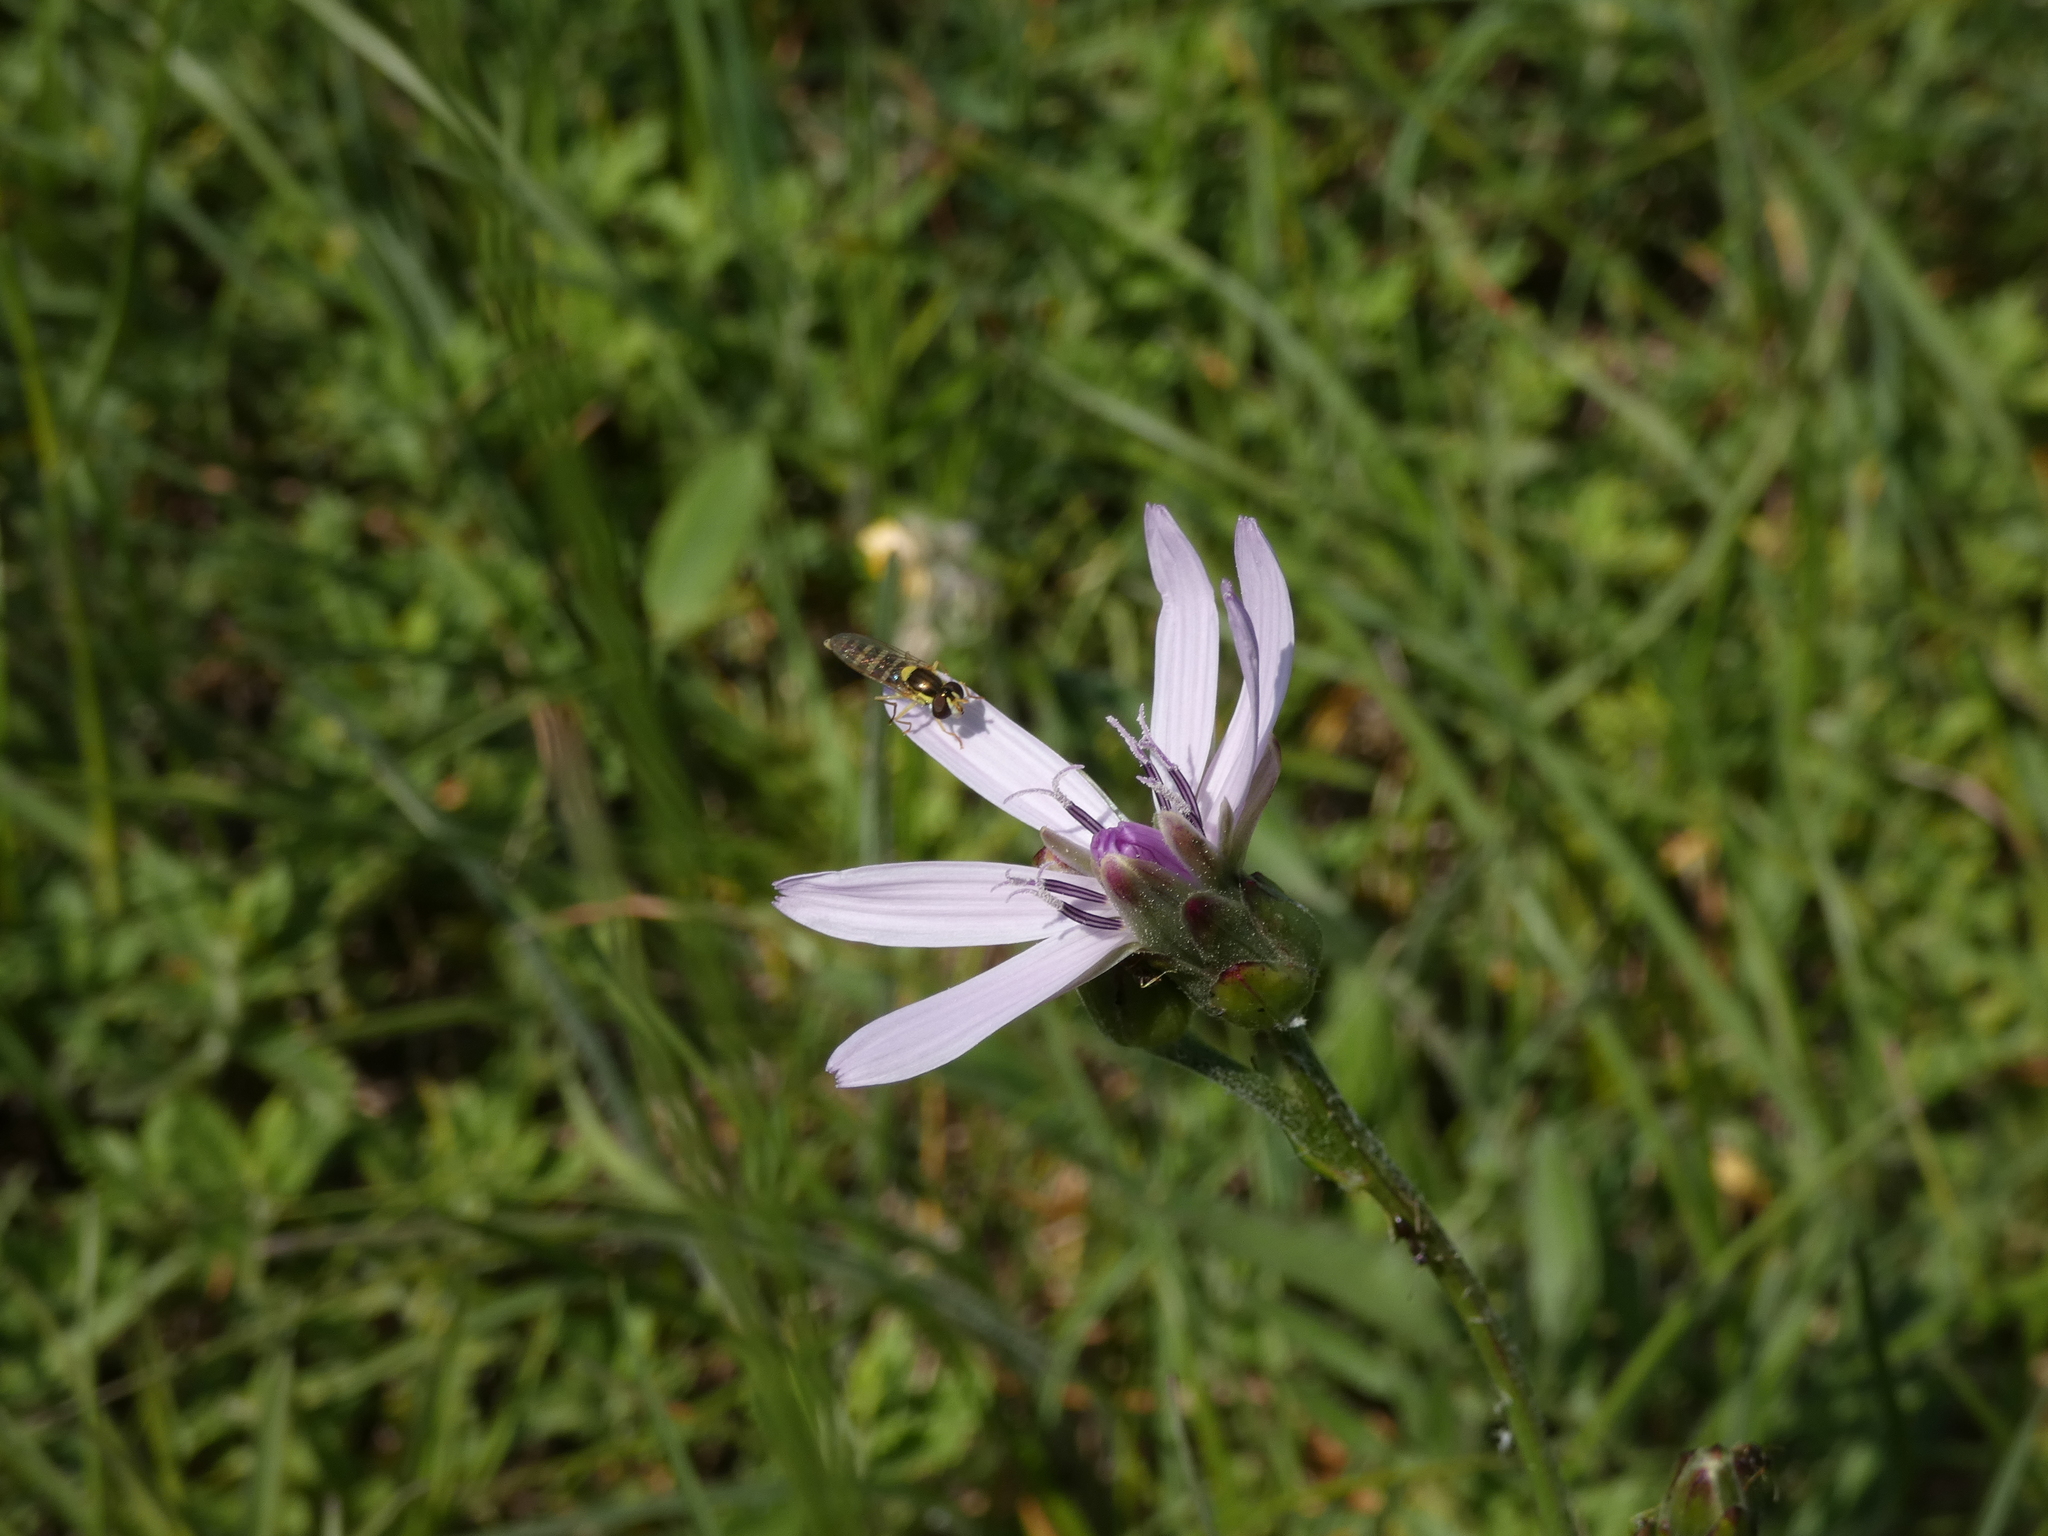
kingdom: Plantae
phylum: Tracheophyta
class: Magnoliopsida
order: Asterales
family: Asteraceae
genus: Scorzonera
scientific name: Scorzonera purpurea
